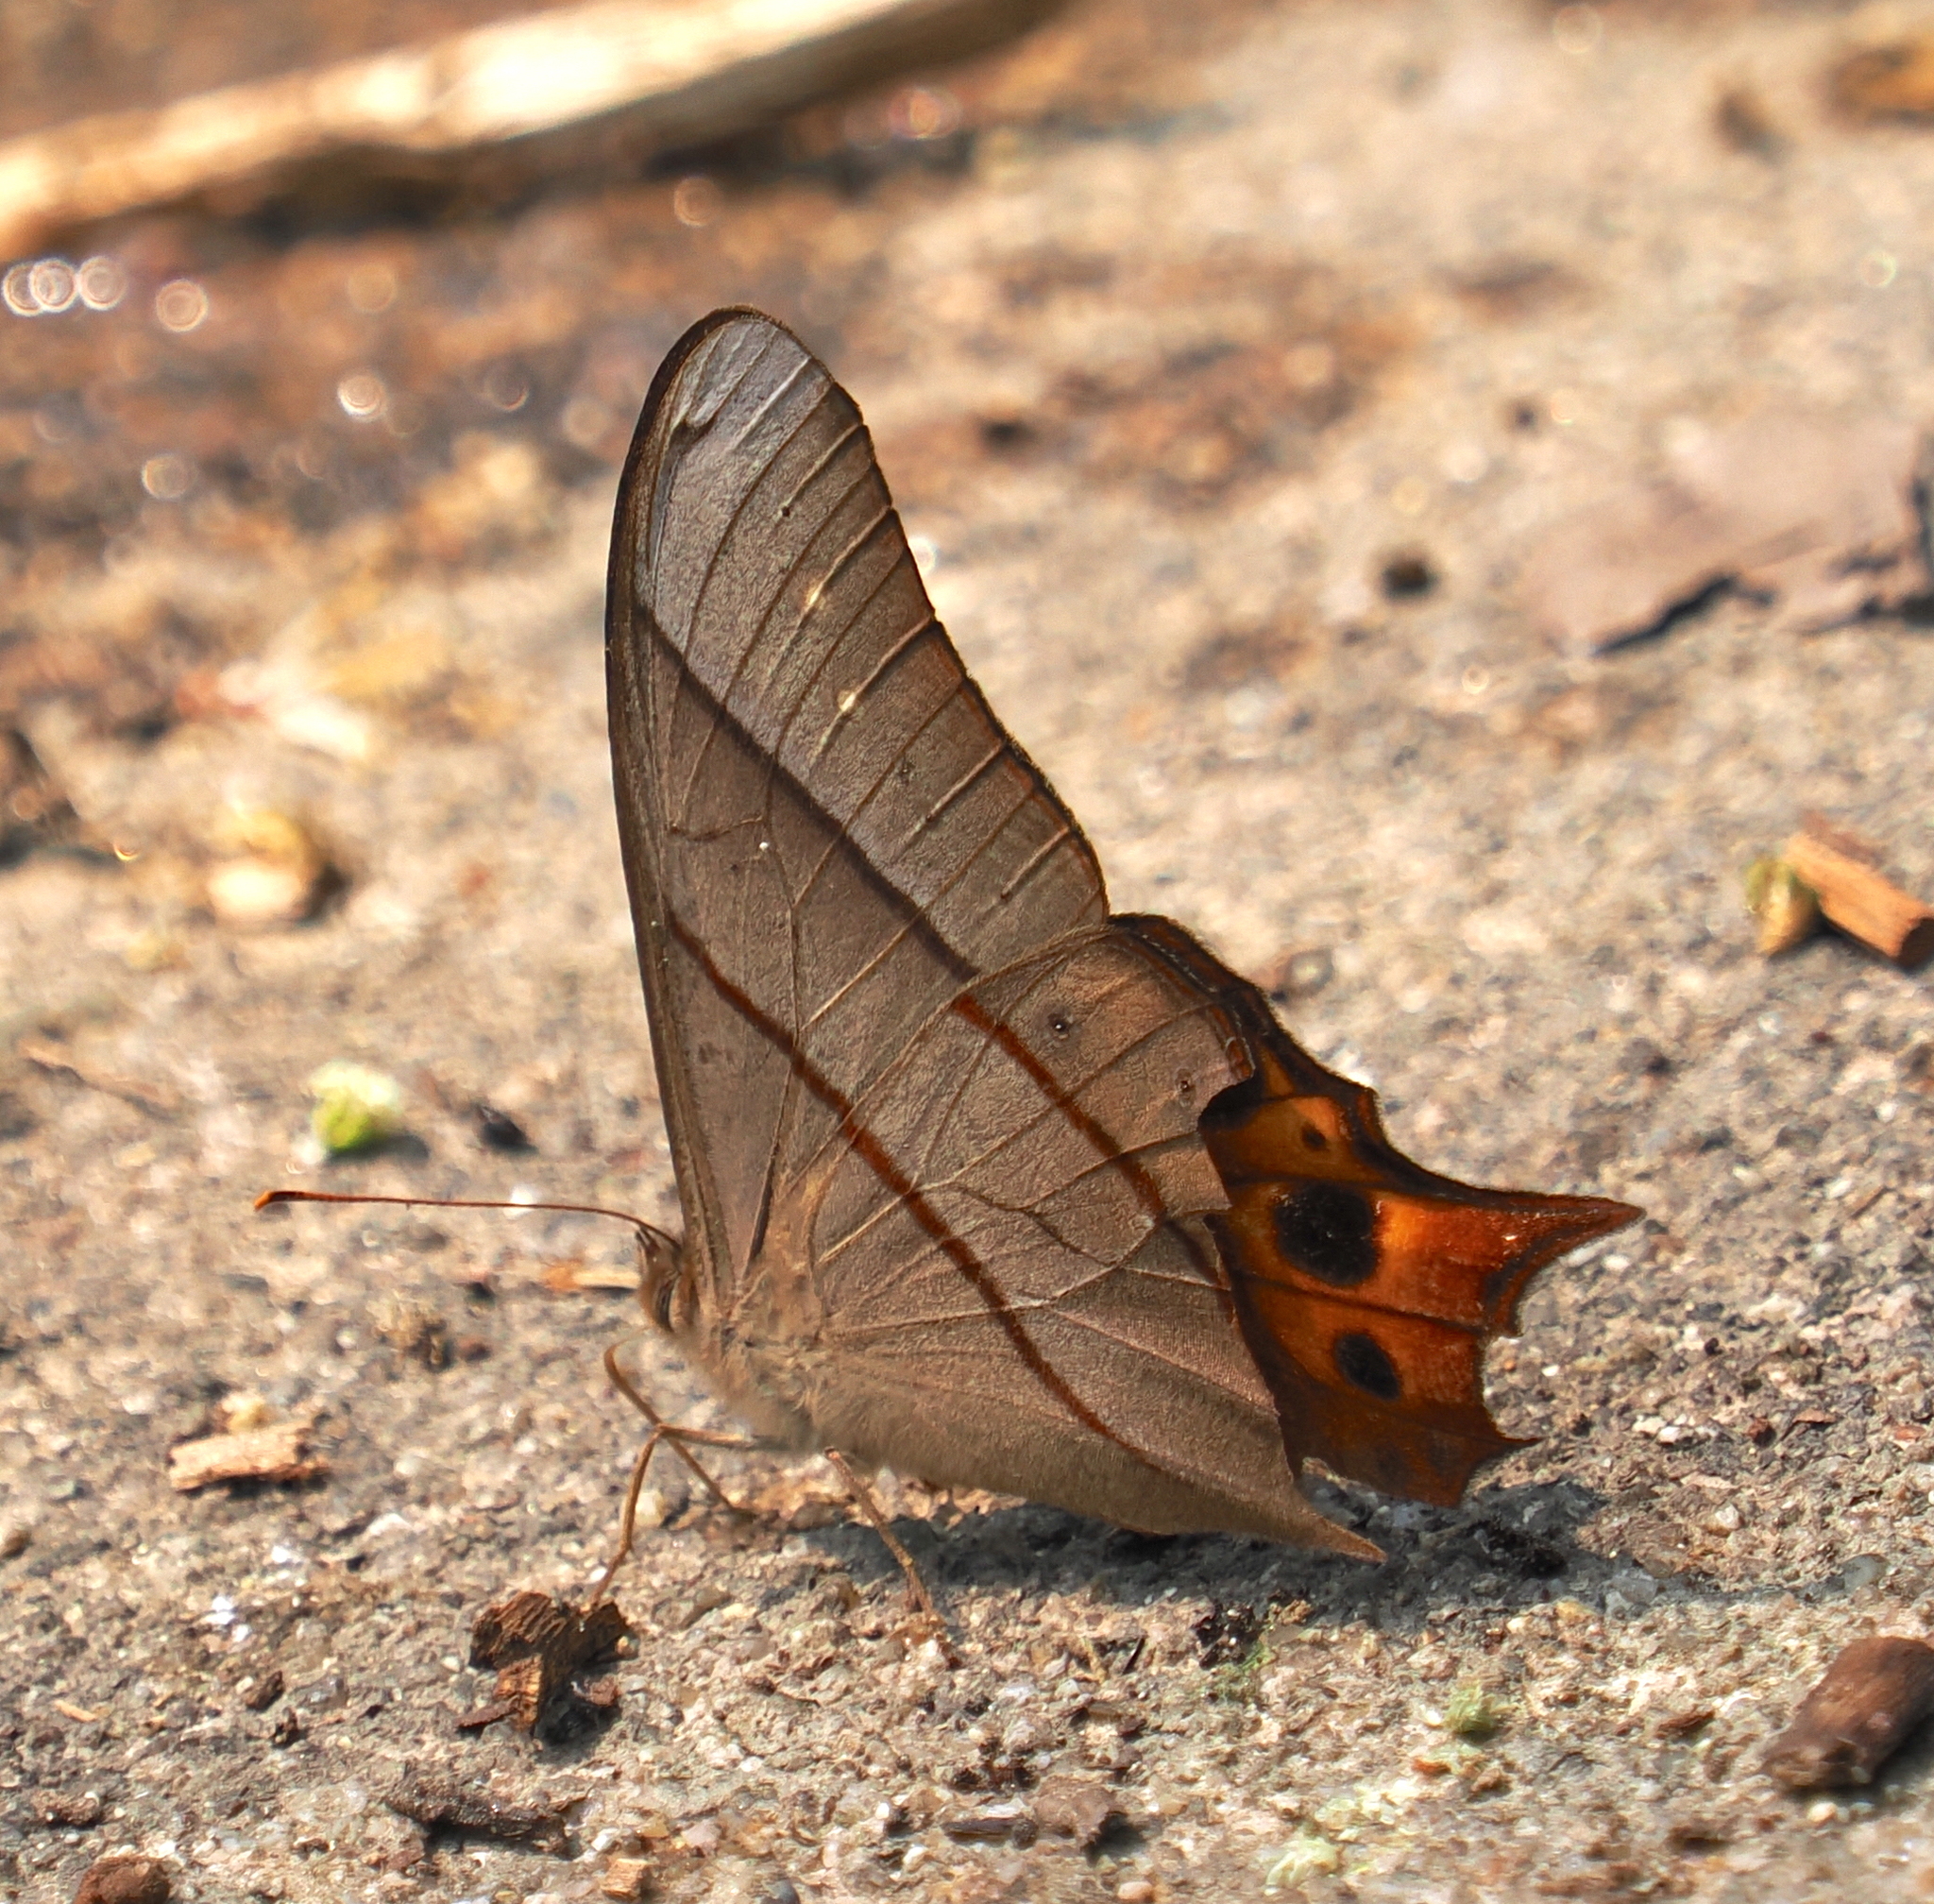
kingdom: Animalia
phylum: Arthropoda
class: Insecta
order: Lepidoptera
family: Nymphalidae
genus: Lethe
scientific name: Lethe sinorix
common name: Tailed red forester
